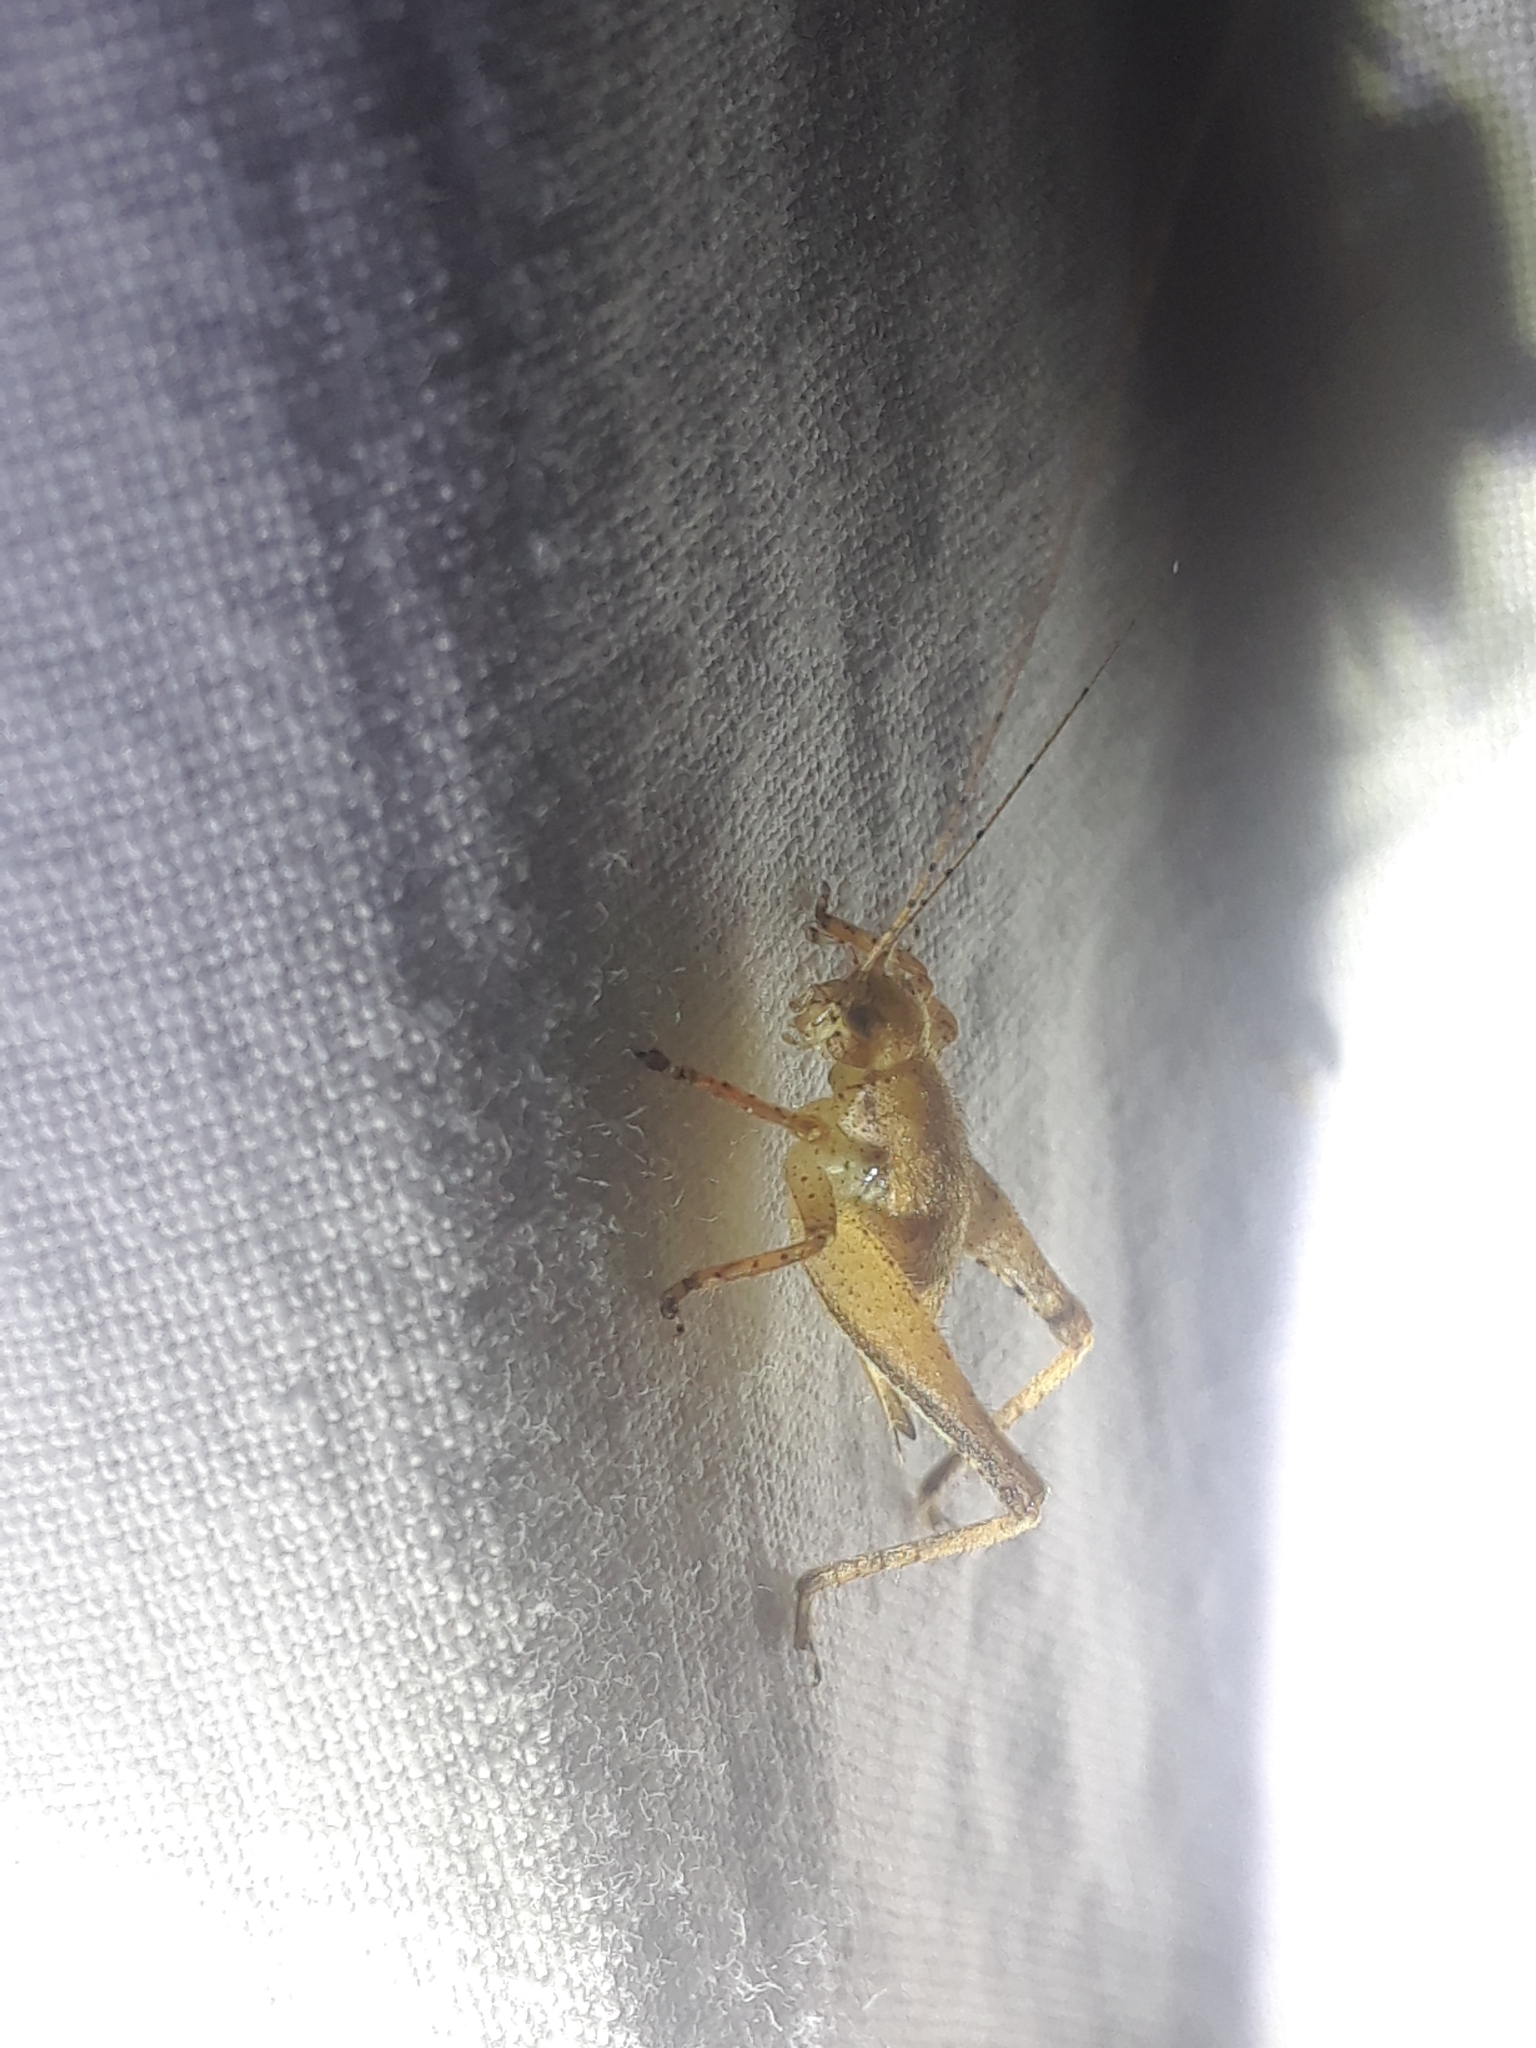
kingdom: Animalia
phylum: Arthropoda
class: Insecta
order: Orthoptera
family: Gryllidae
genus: Hapithus
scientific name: Hapithus agitator
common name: Restless bush cricket
